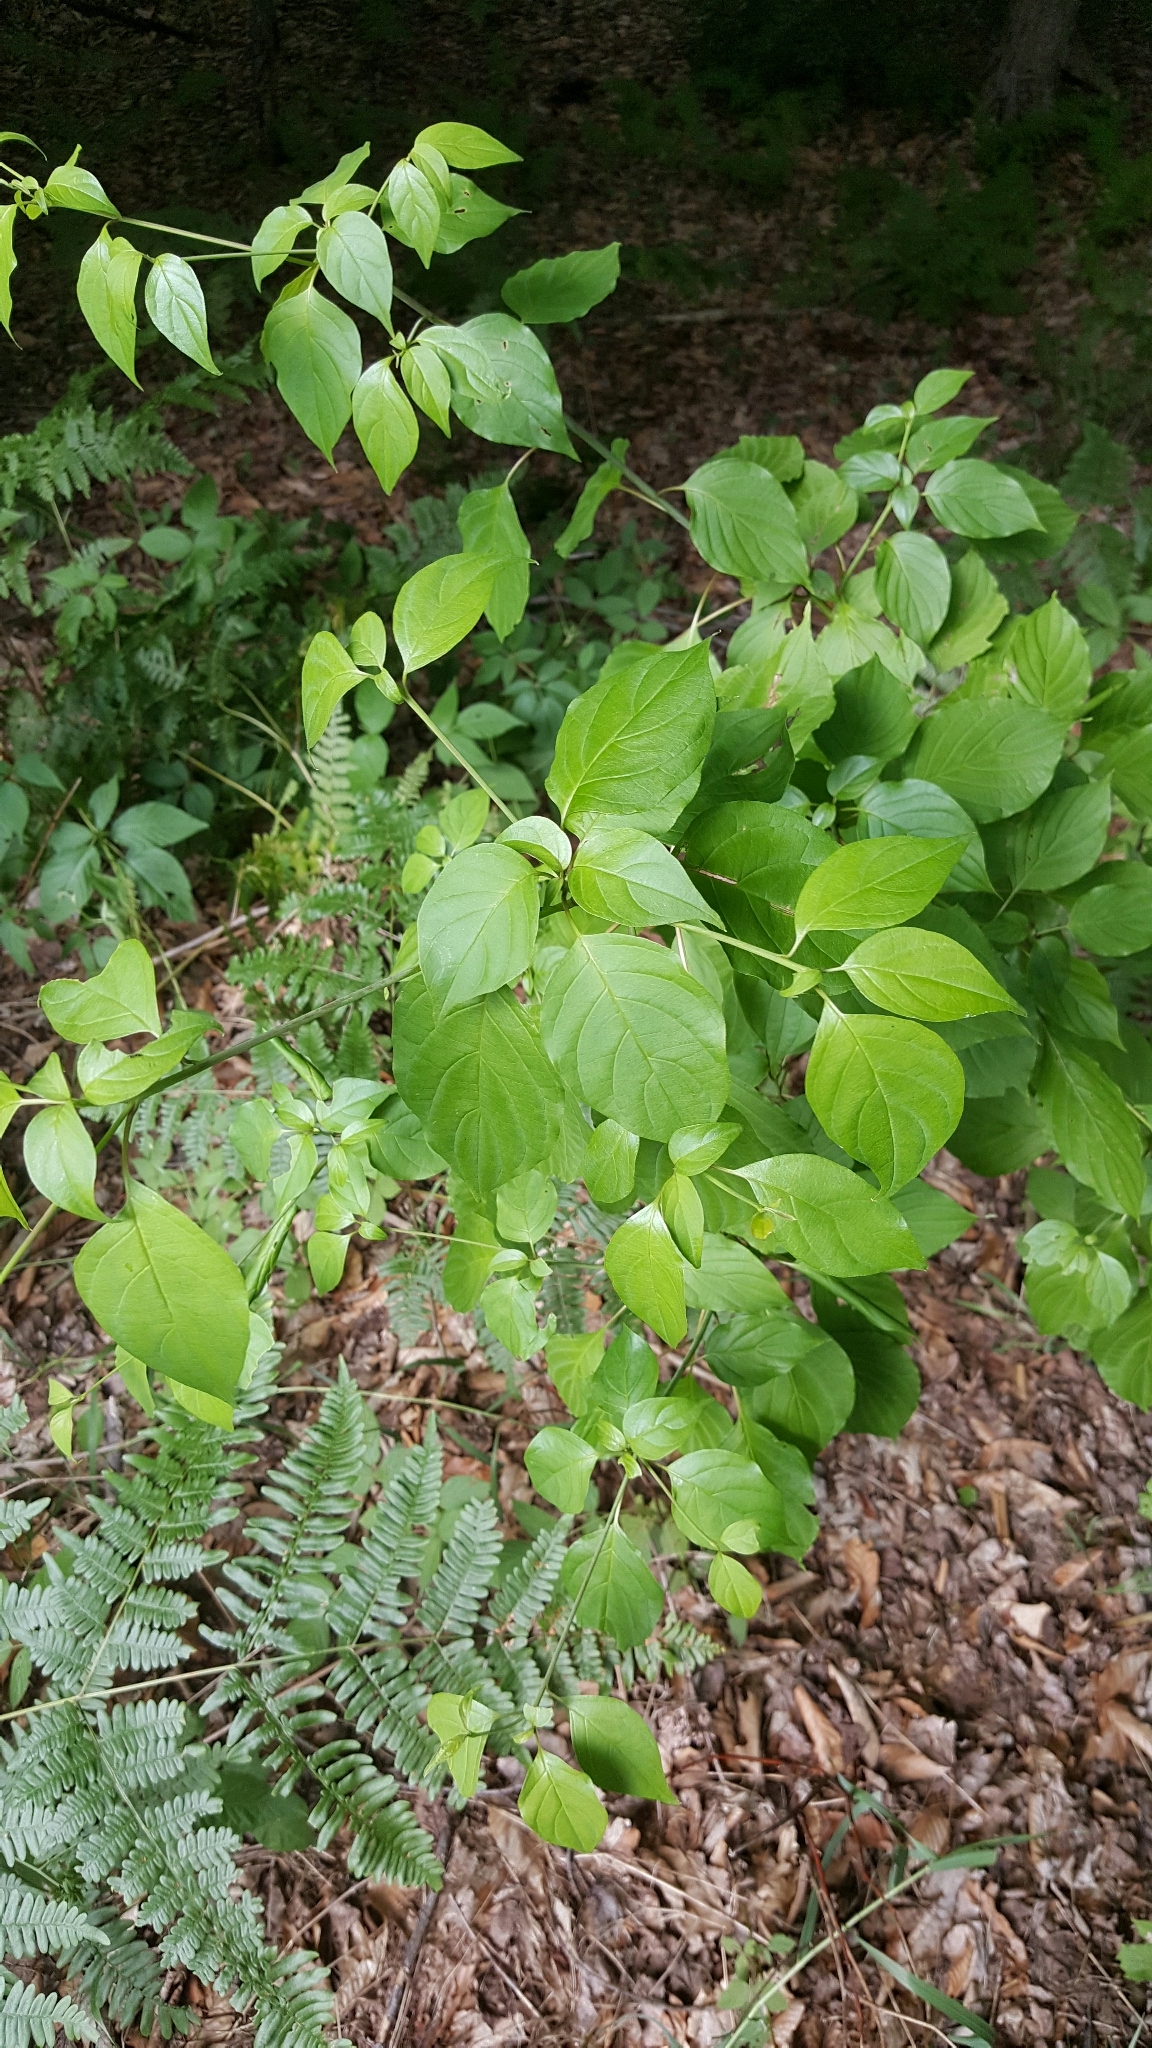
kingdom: Plantae
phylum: Tracheophyta
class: Magnoliopsida
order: Cornales
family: Cornaceae
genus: Cornus
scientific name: Cornus alternifolia
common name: Pagoda dogwood
